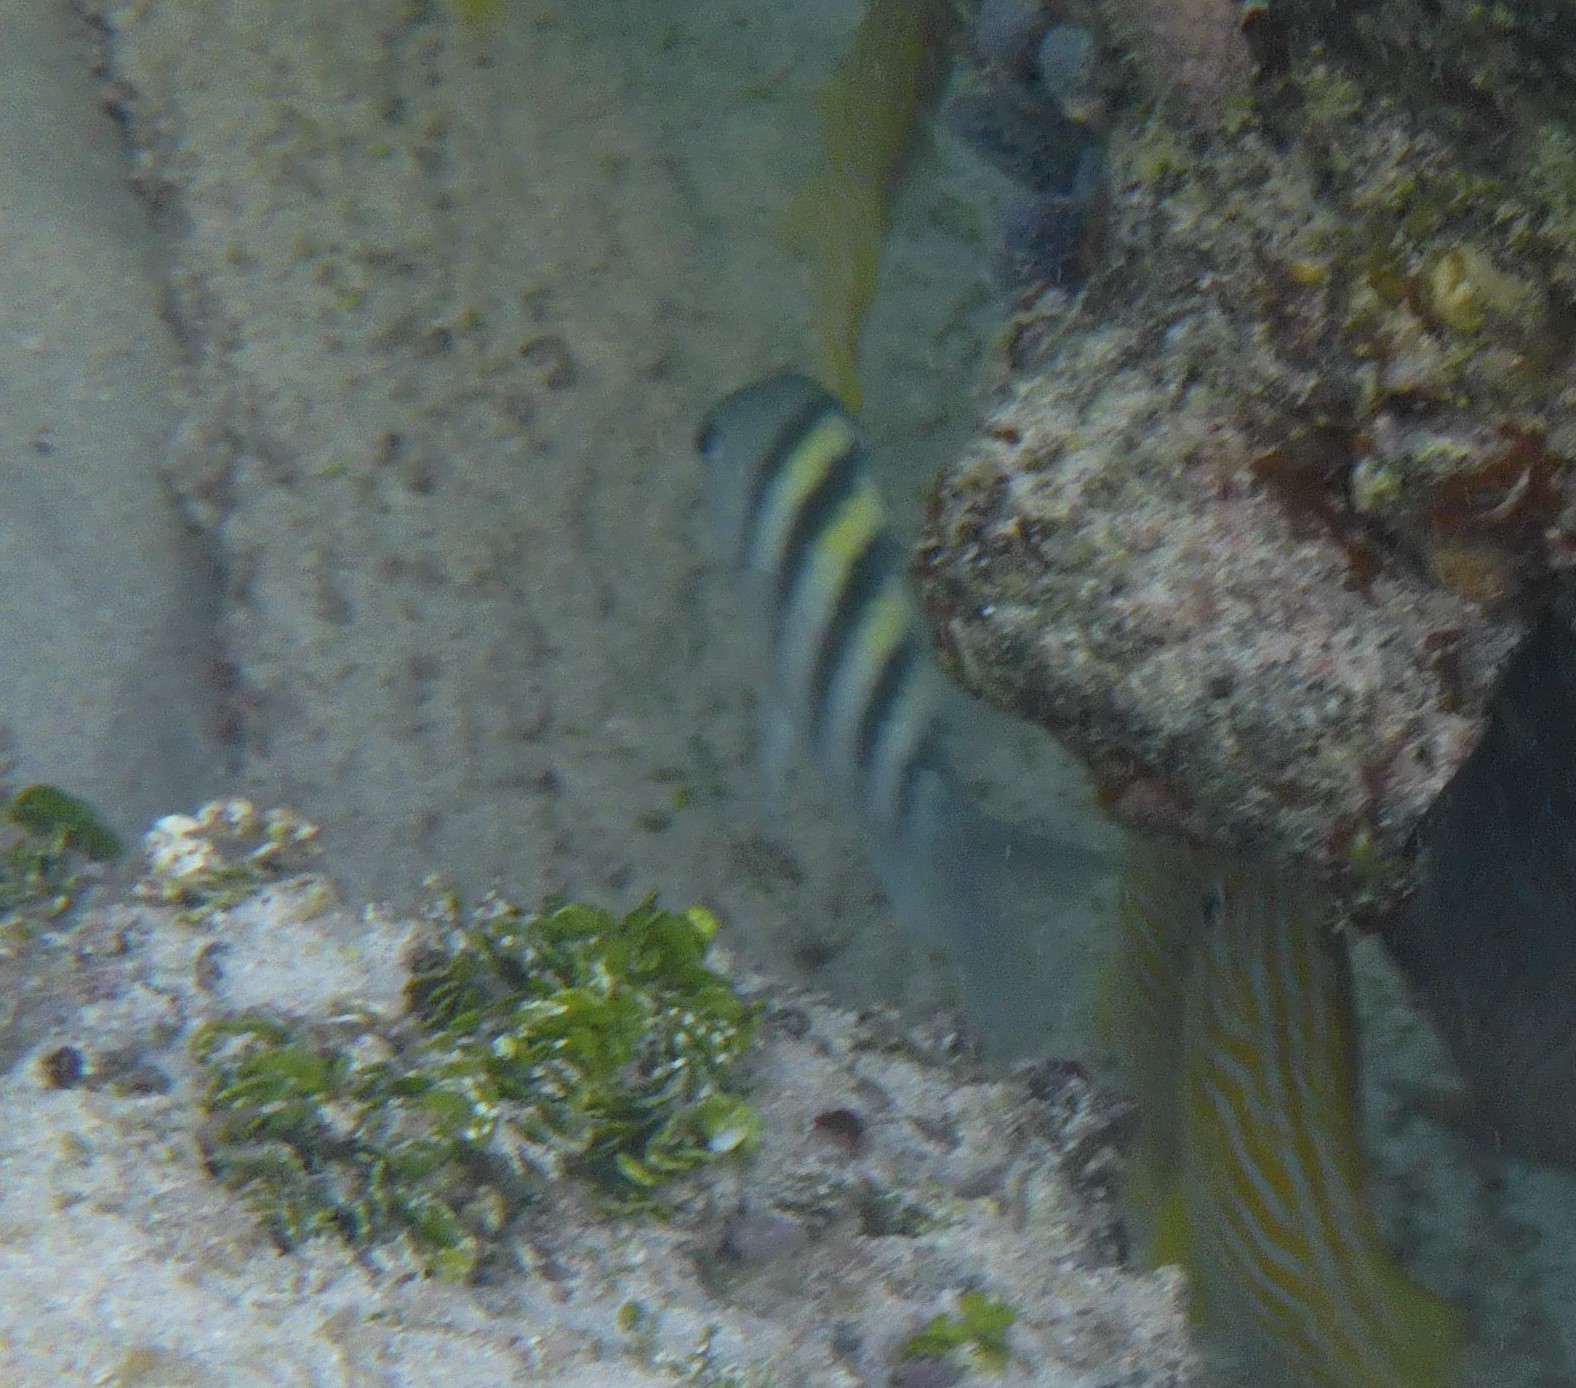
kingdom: Animalia
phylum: Chordata
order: Perciformes
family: Pomacentridae
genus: Abudefduf
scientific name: Abudefduf saxatilis
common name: Sergeant major
